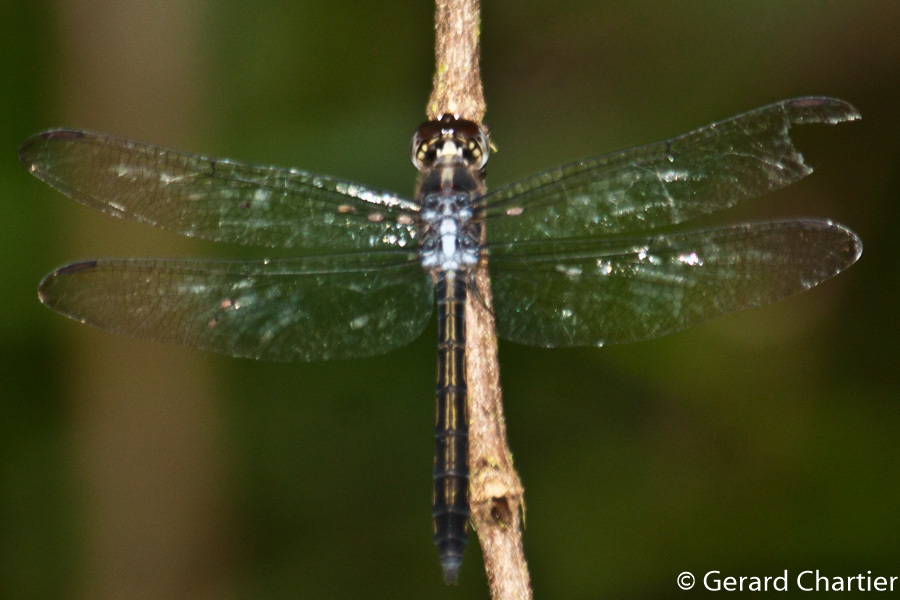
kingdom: Animalia
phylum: Arthropoda
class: Insecta
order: Odonata
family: Libellulidae
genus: Cratilla
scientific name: Cratilla lineata
